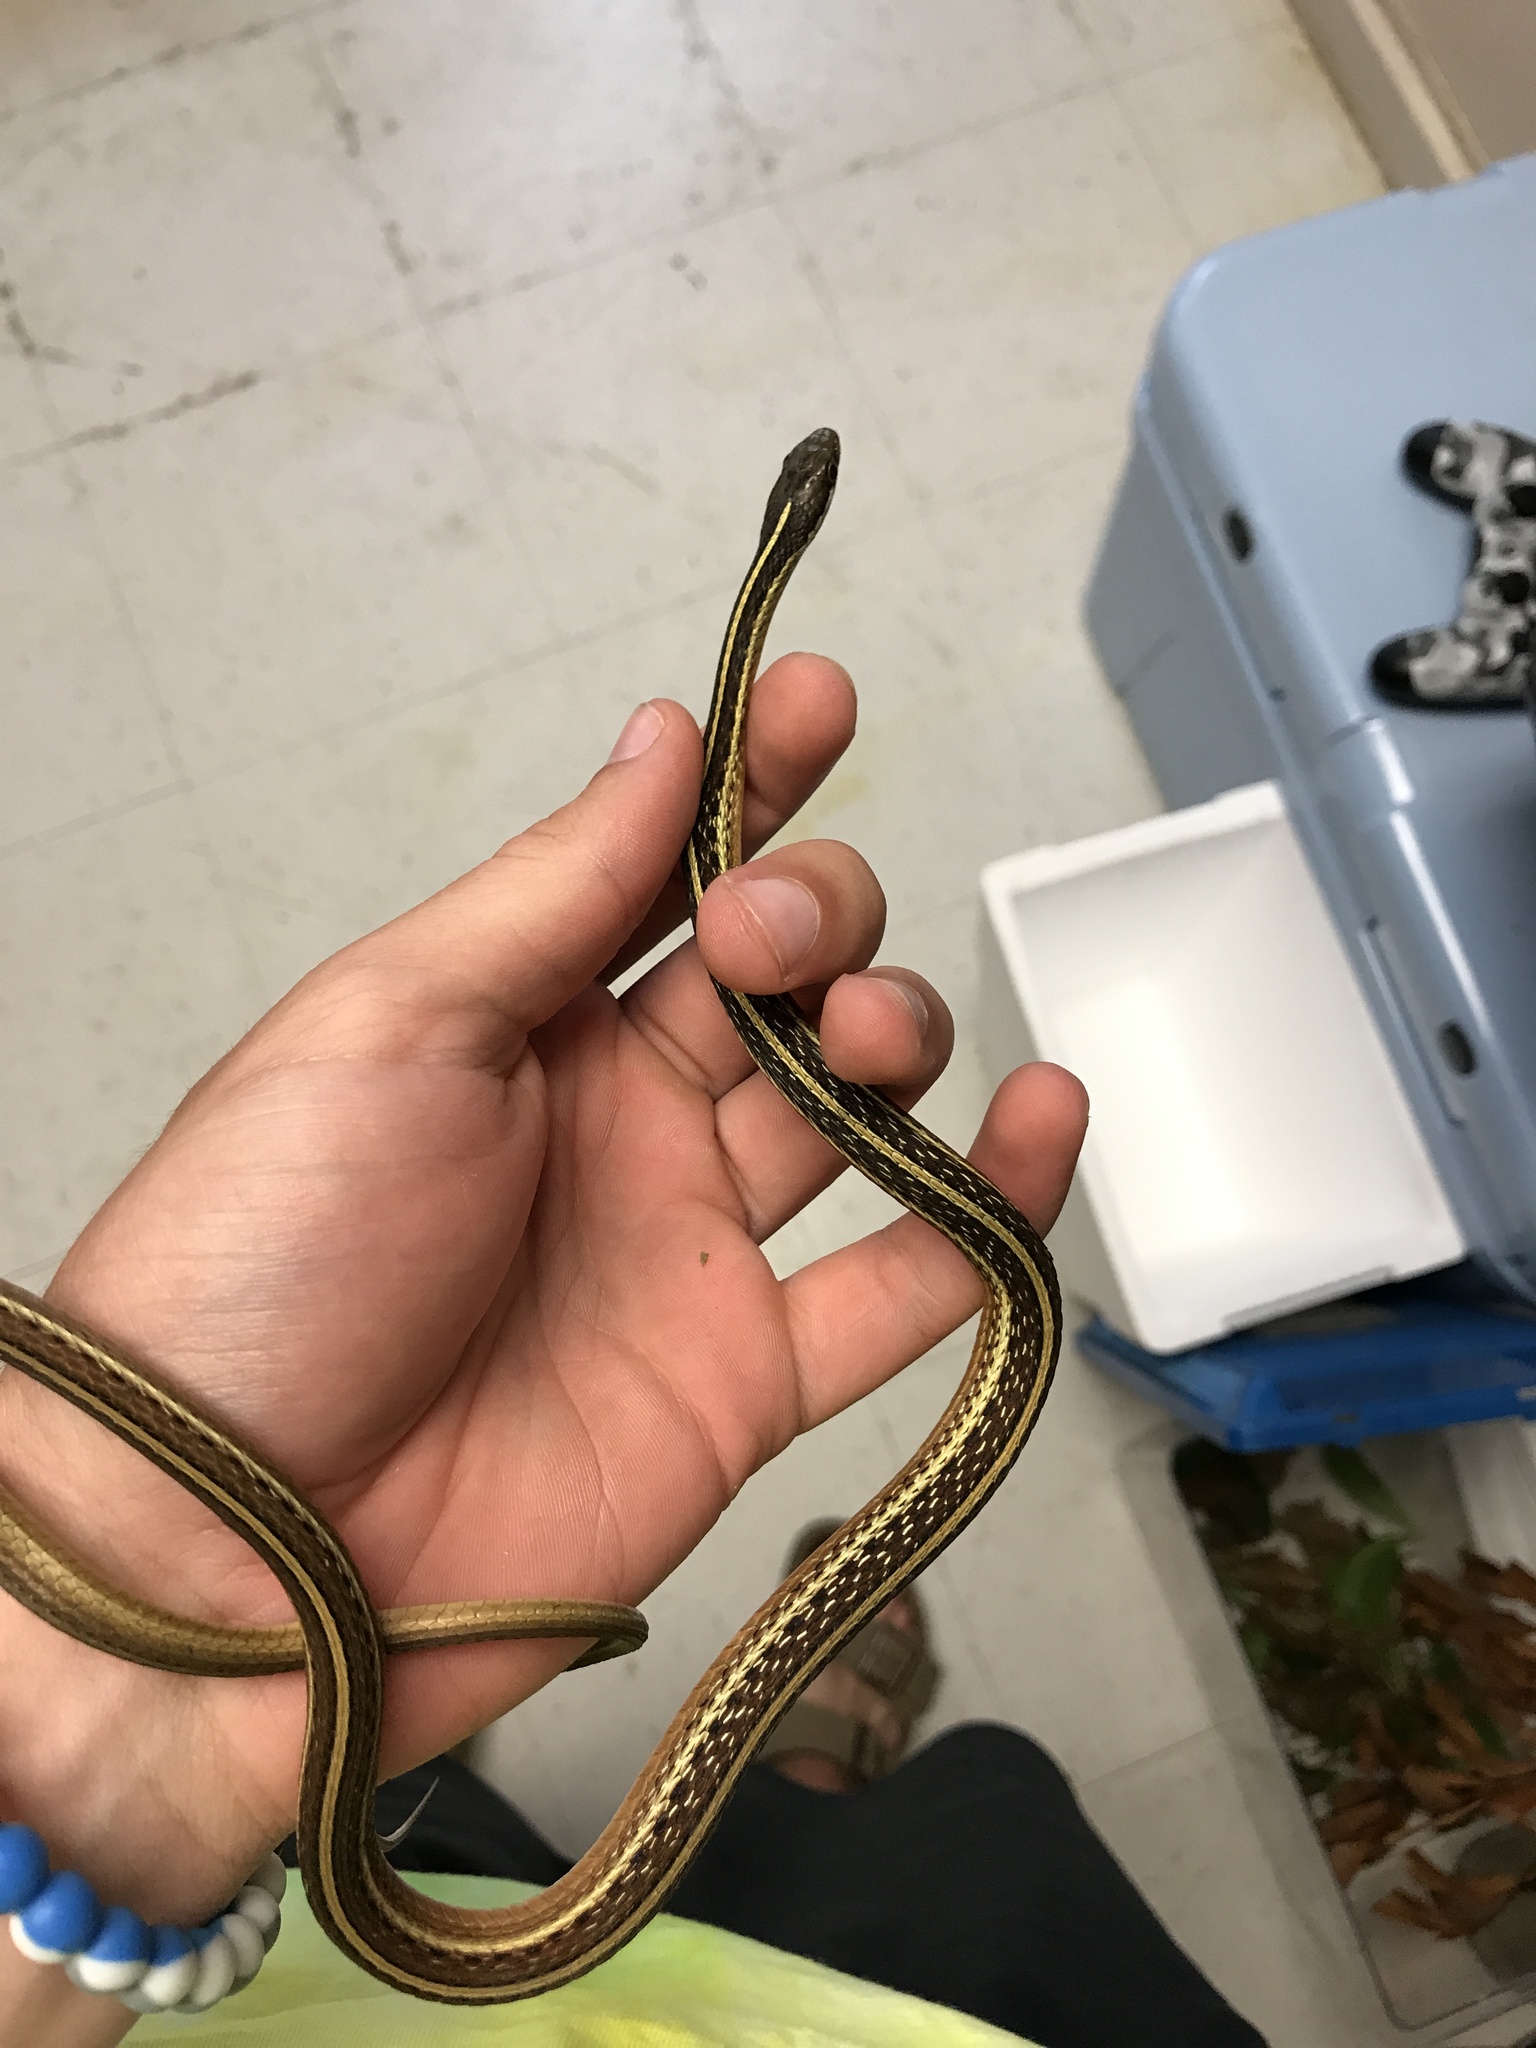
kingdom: Animalia
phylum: Chordata
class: Squamata
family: Colubridae
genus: Thamnophis
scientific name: Thamnophis saurita
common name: Eastern ribbonsnake
